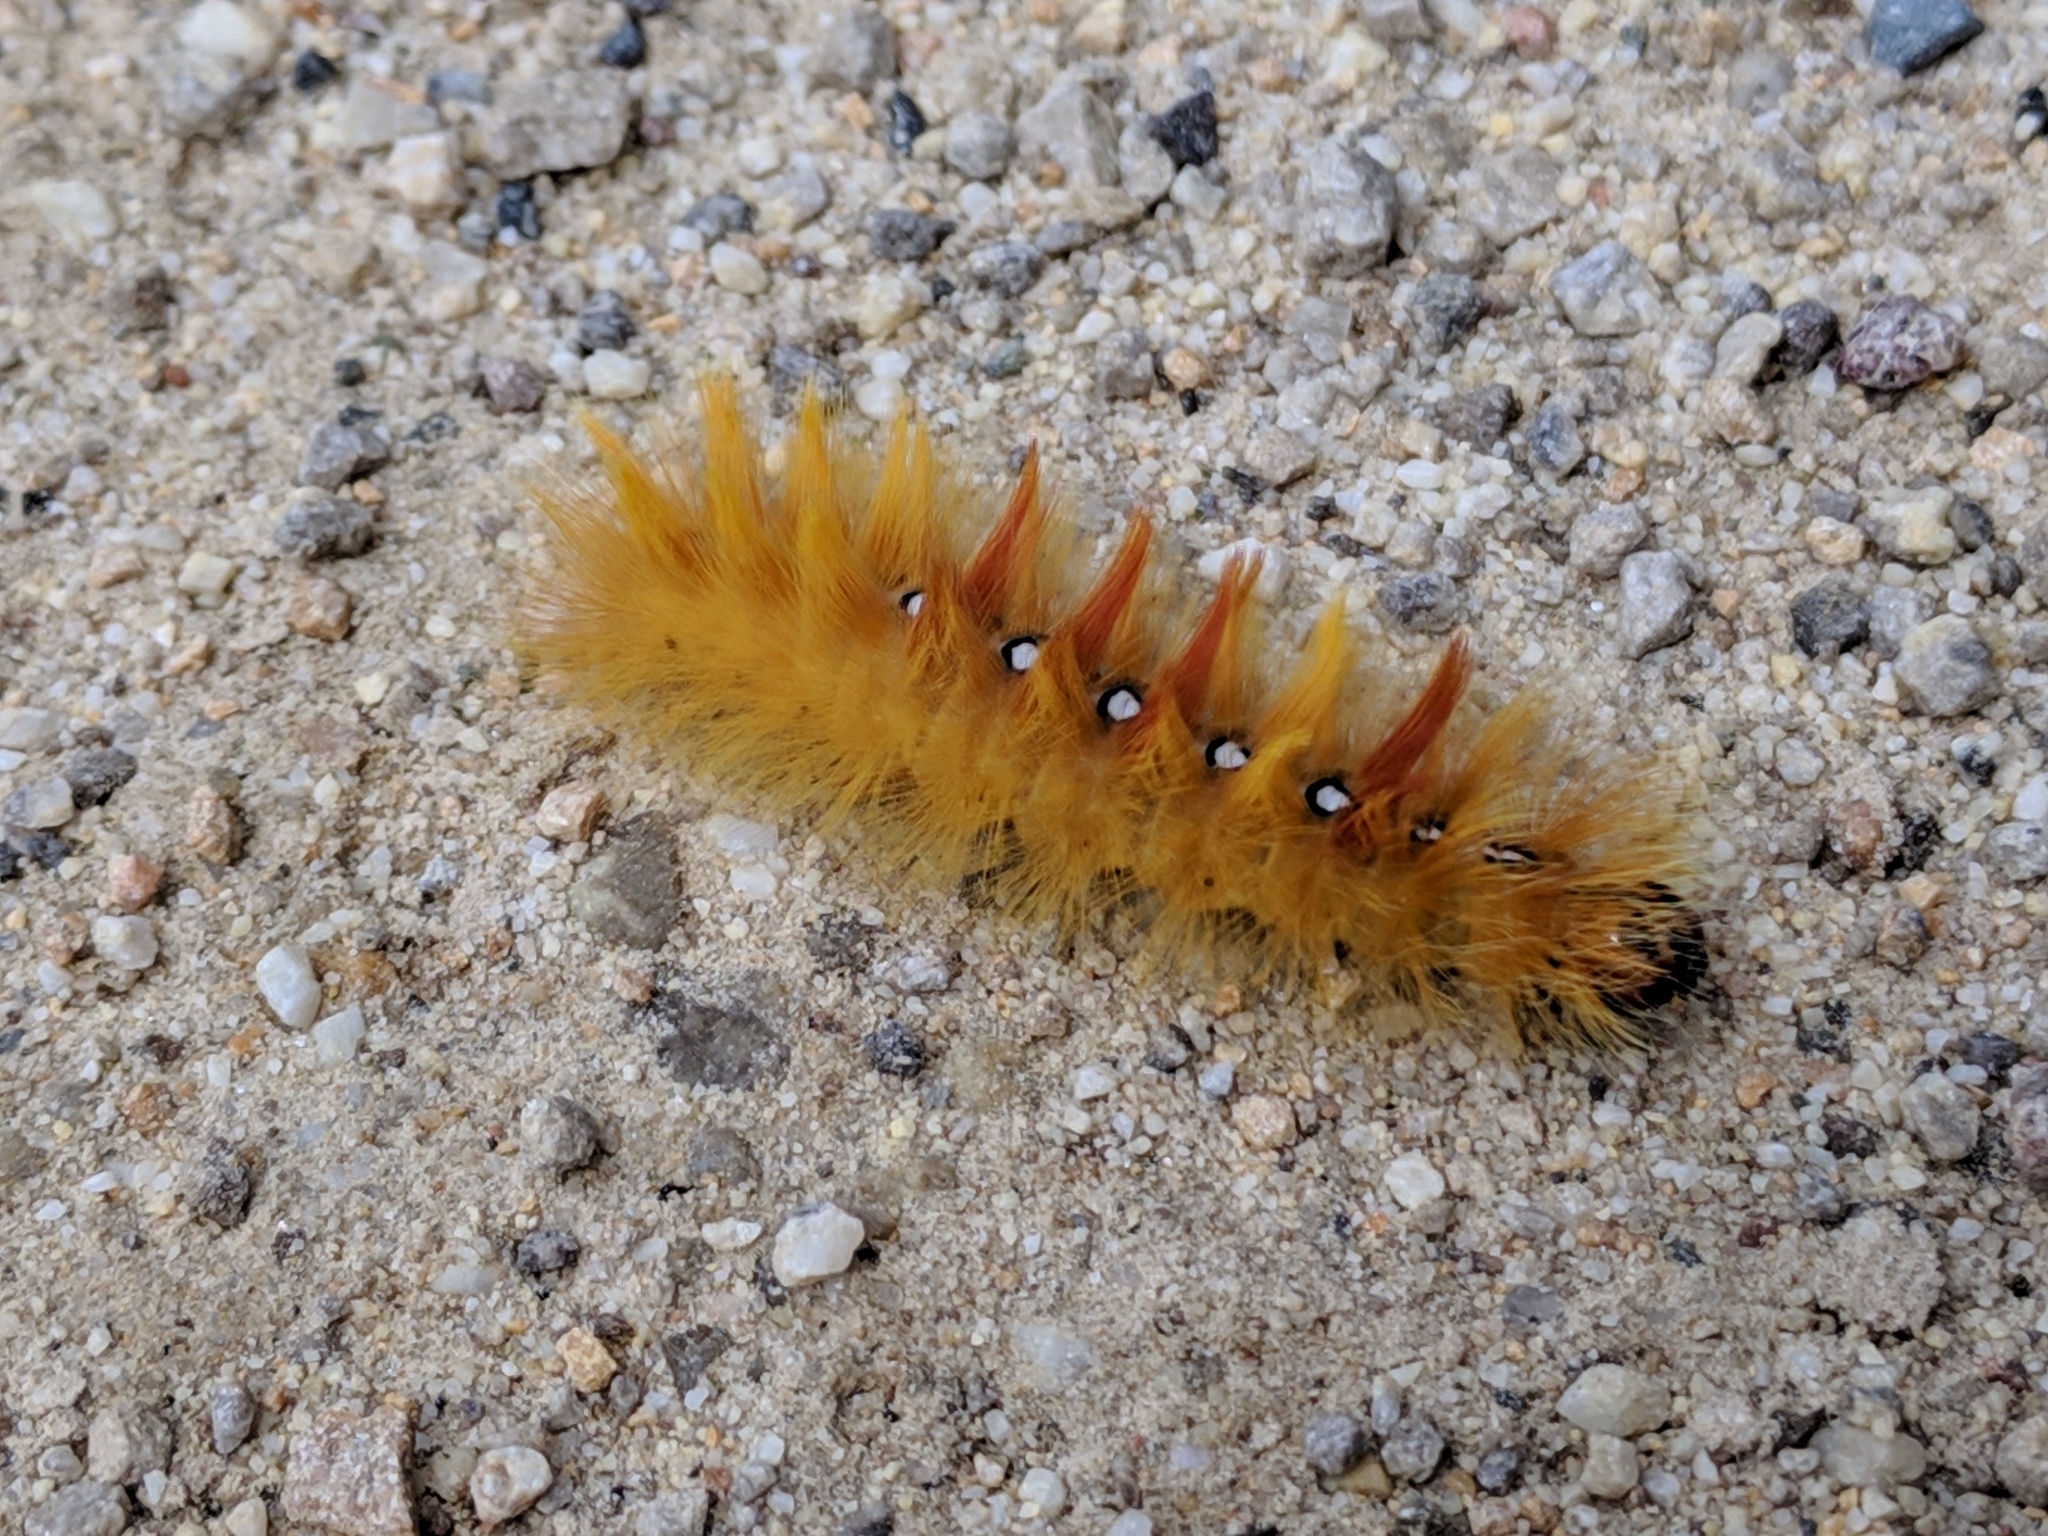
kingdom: Animalia
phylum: Arthropoda
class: Insecta
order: Lepidoptera
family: Noctuidae
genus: Acronicta
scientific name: Acronicta aceris
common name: Sycamore
